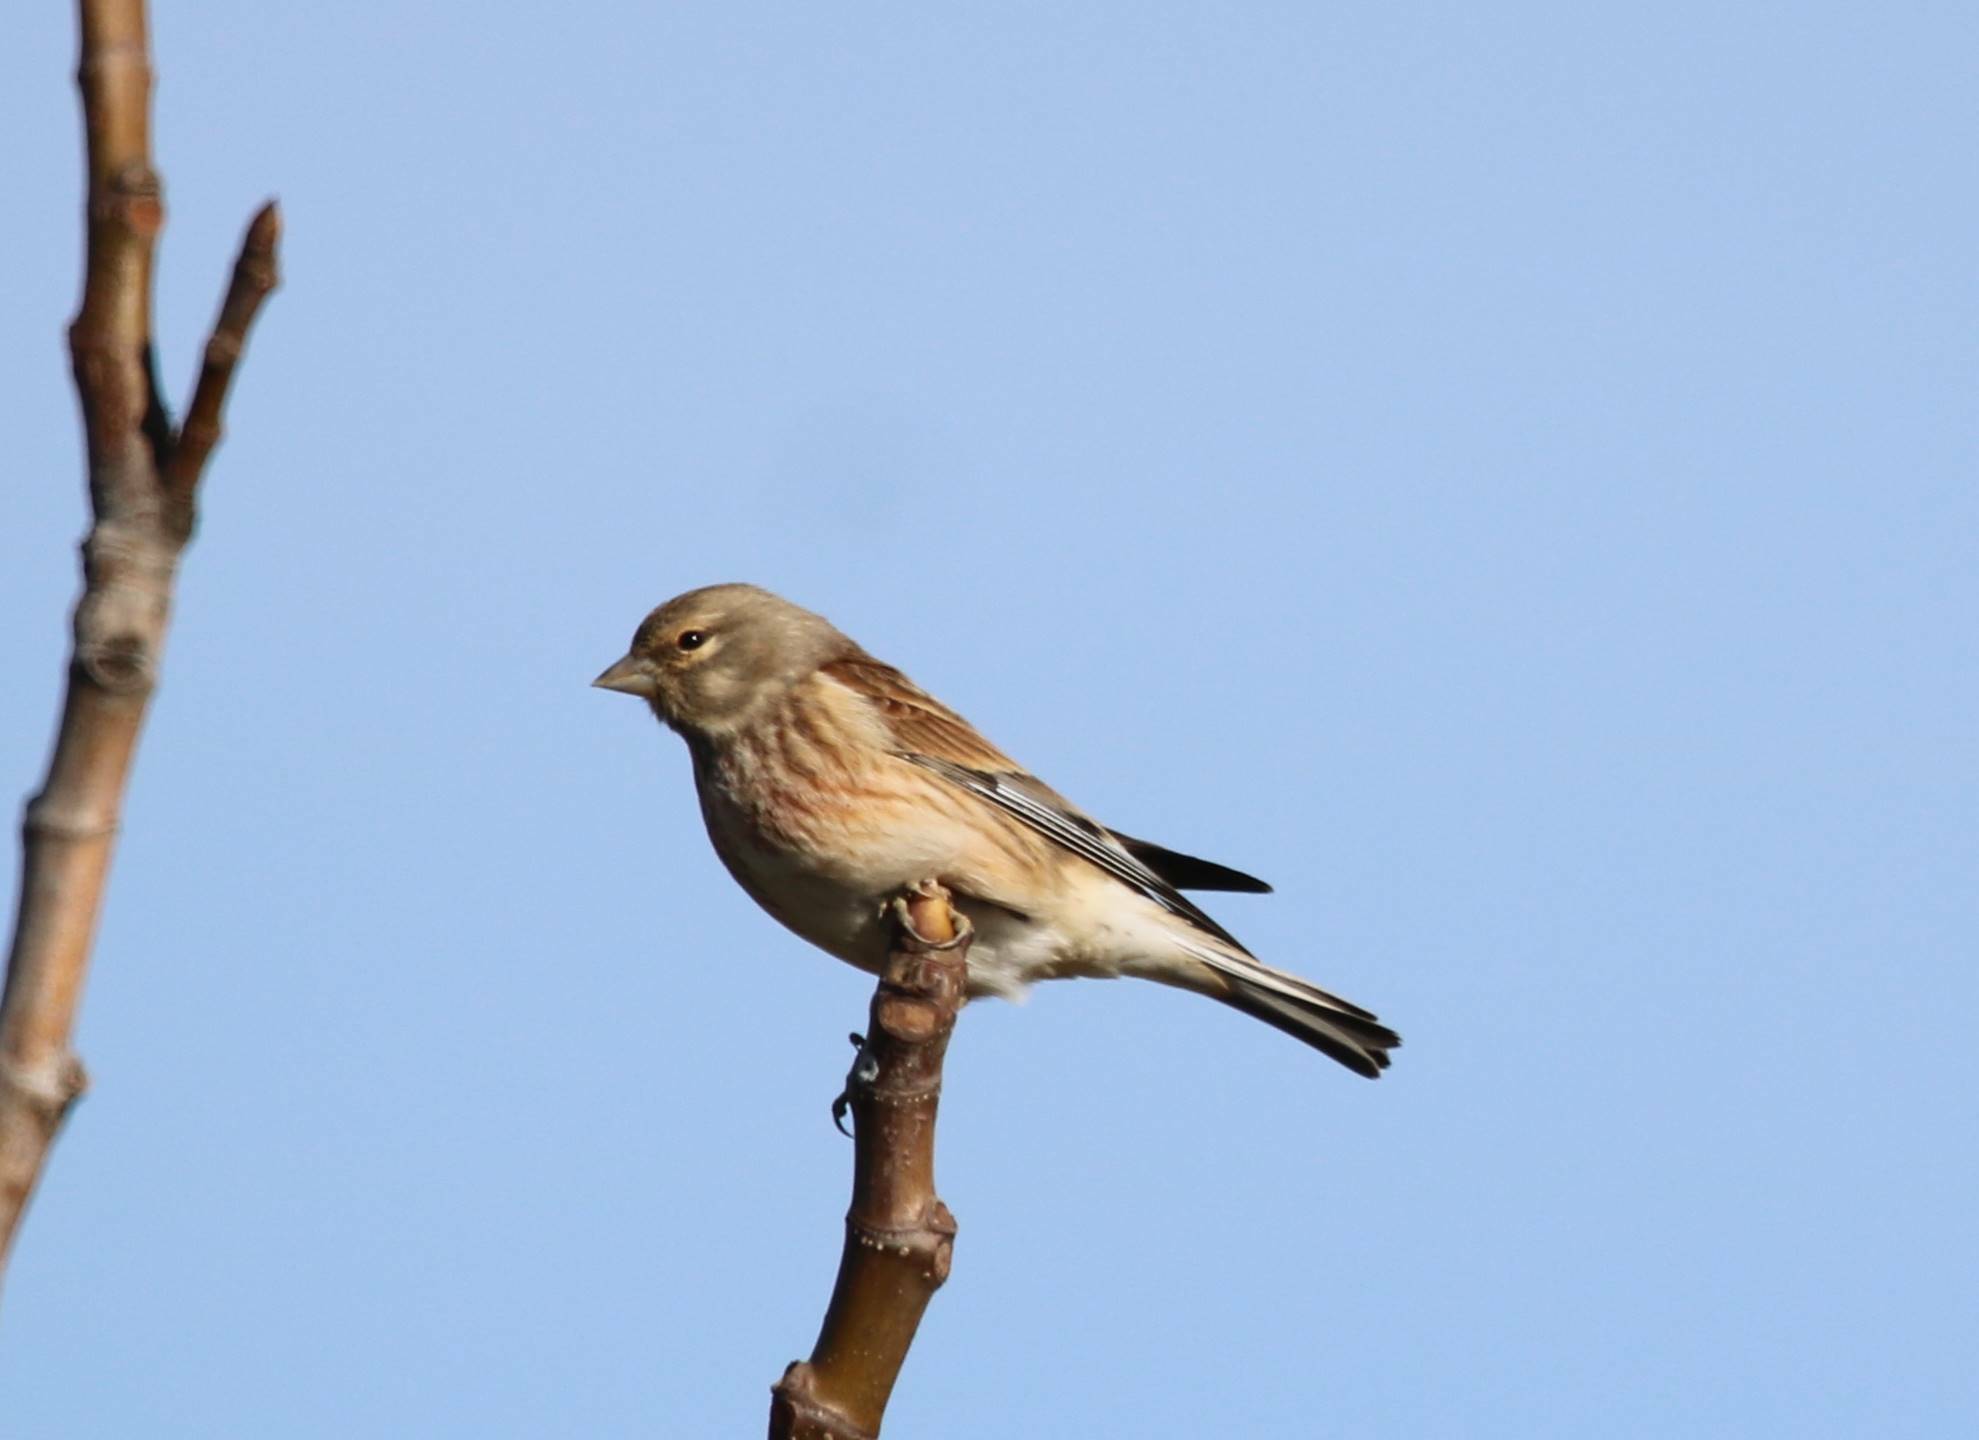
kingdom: Animalia
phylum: Chordata
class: Aves
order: Passeriformes
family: Fringillidae
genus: Linaria
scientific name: Linaria cannabina
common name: Common linnet
